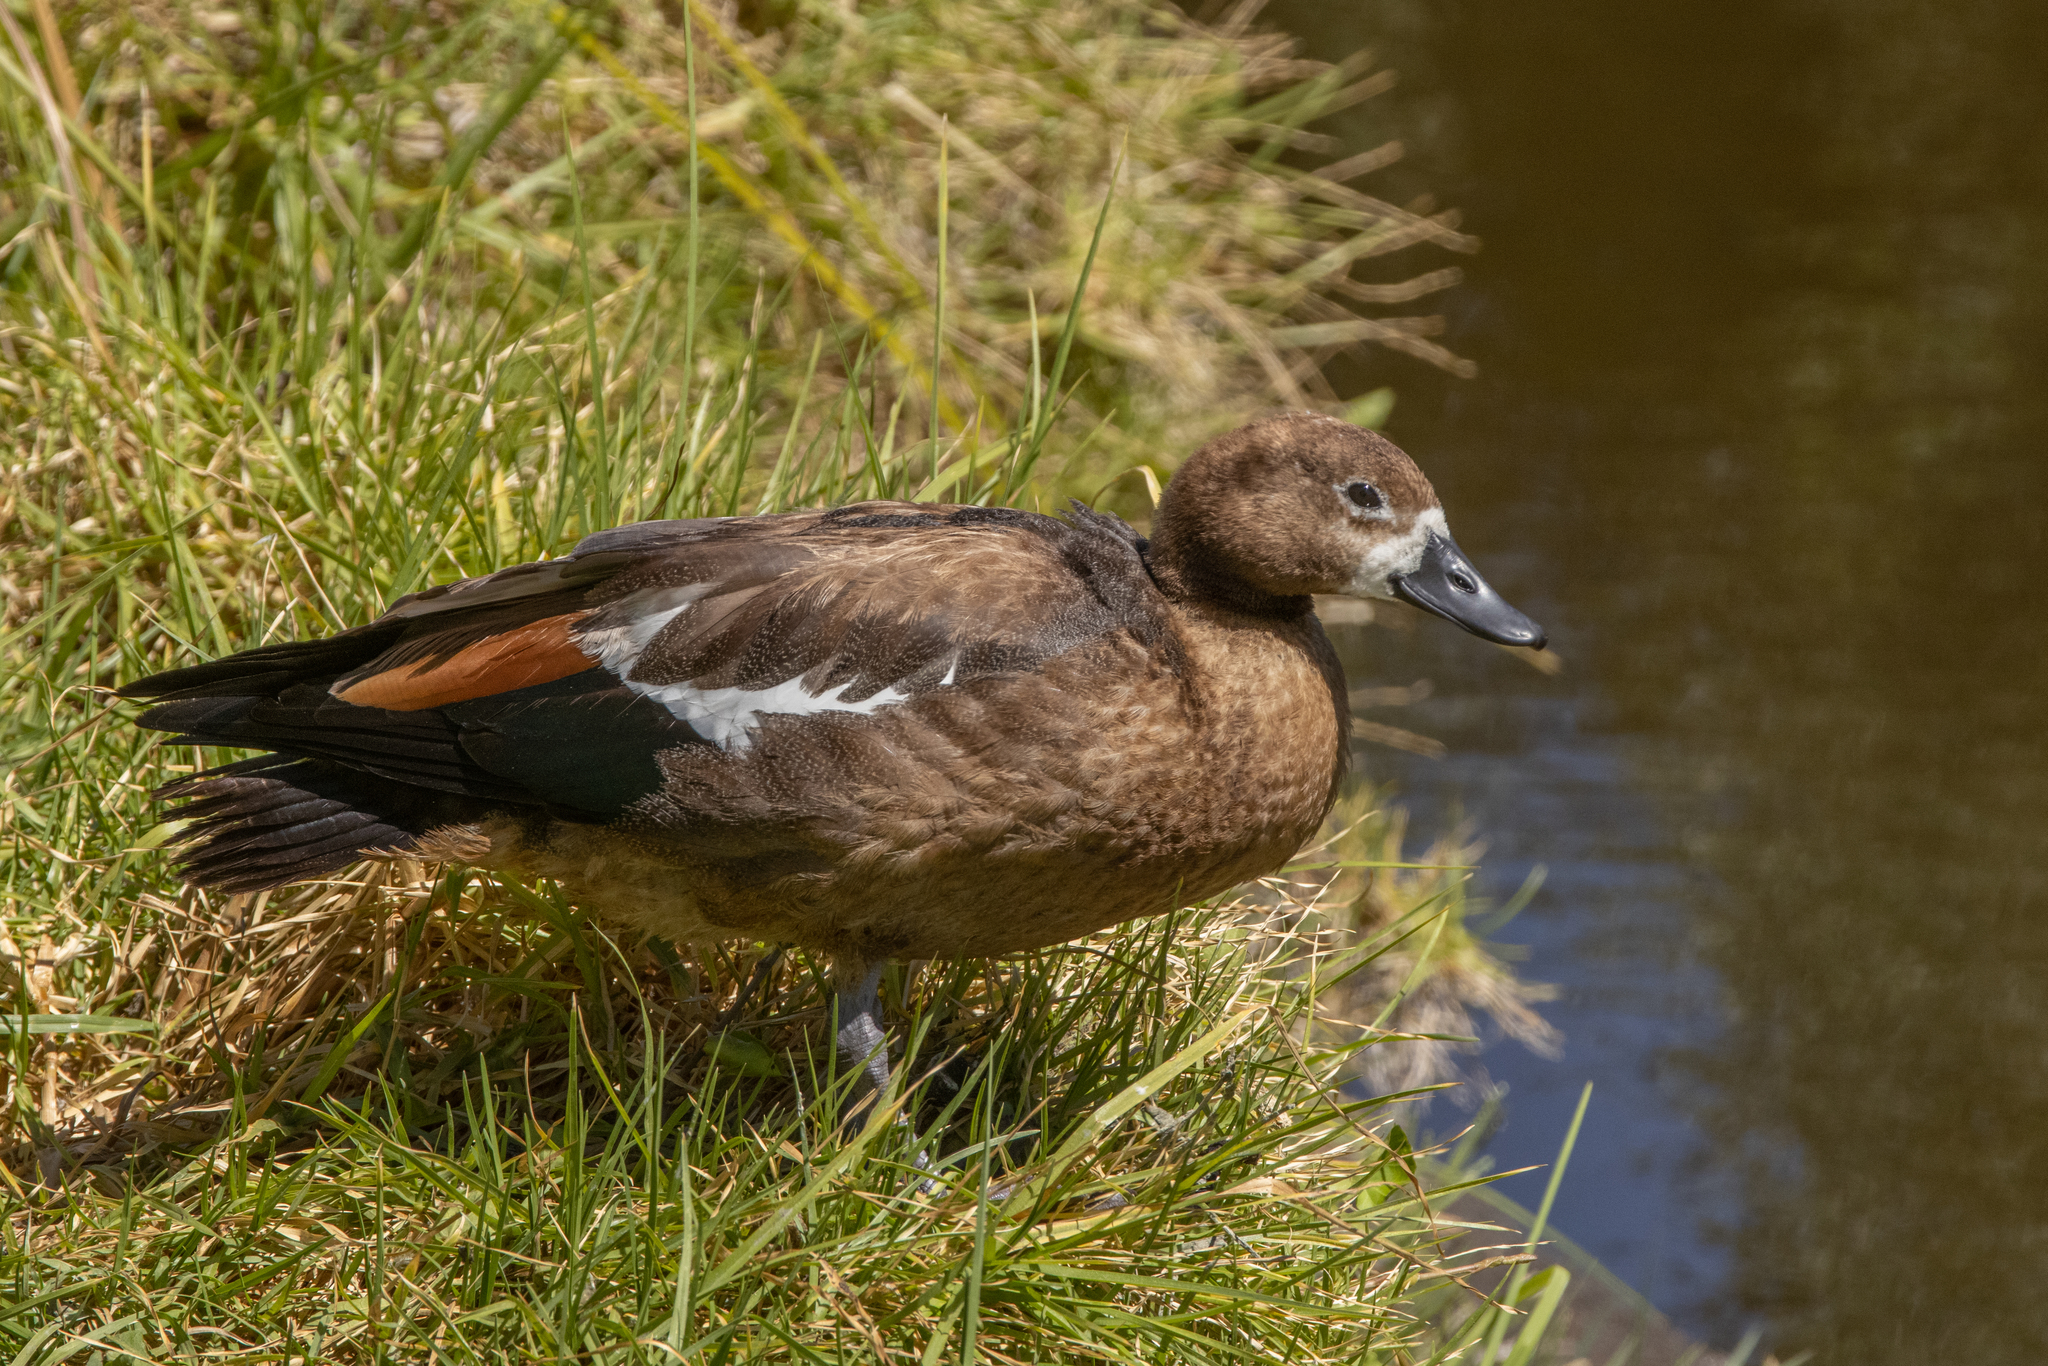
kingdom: Animalia
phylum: Chordata
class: Aves
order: Anseriformes
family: Anatidae
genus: Tadorna
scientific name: Tadorna variegata
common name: Paradise shelduck
